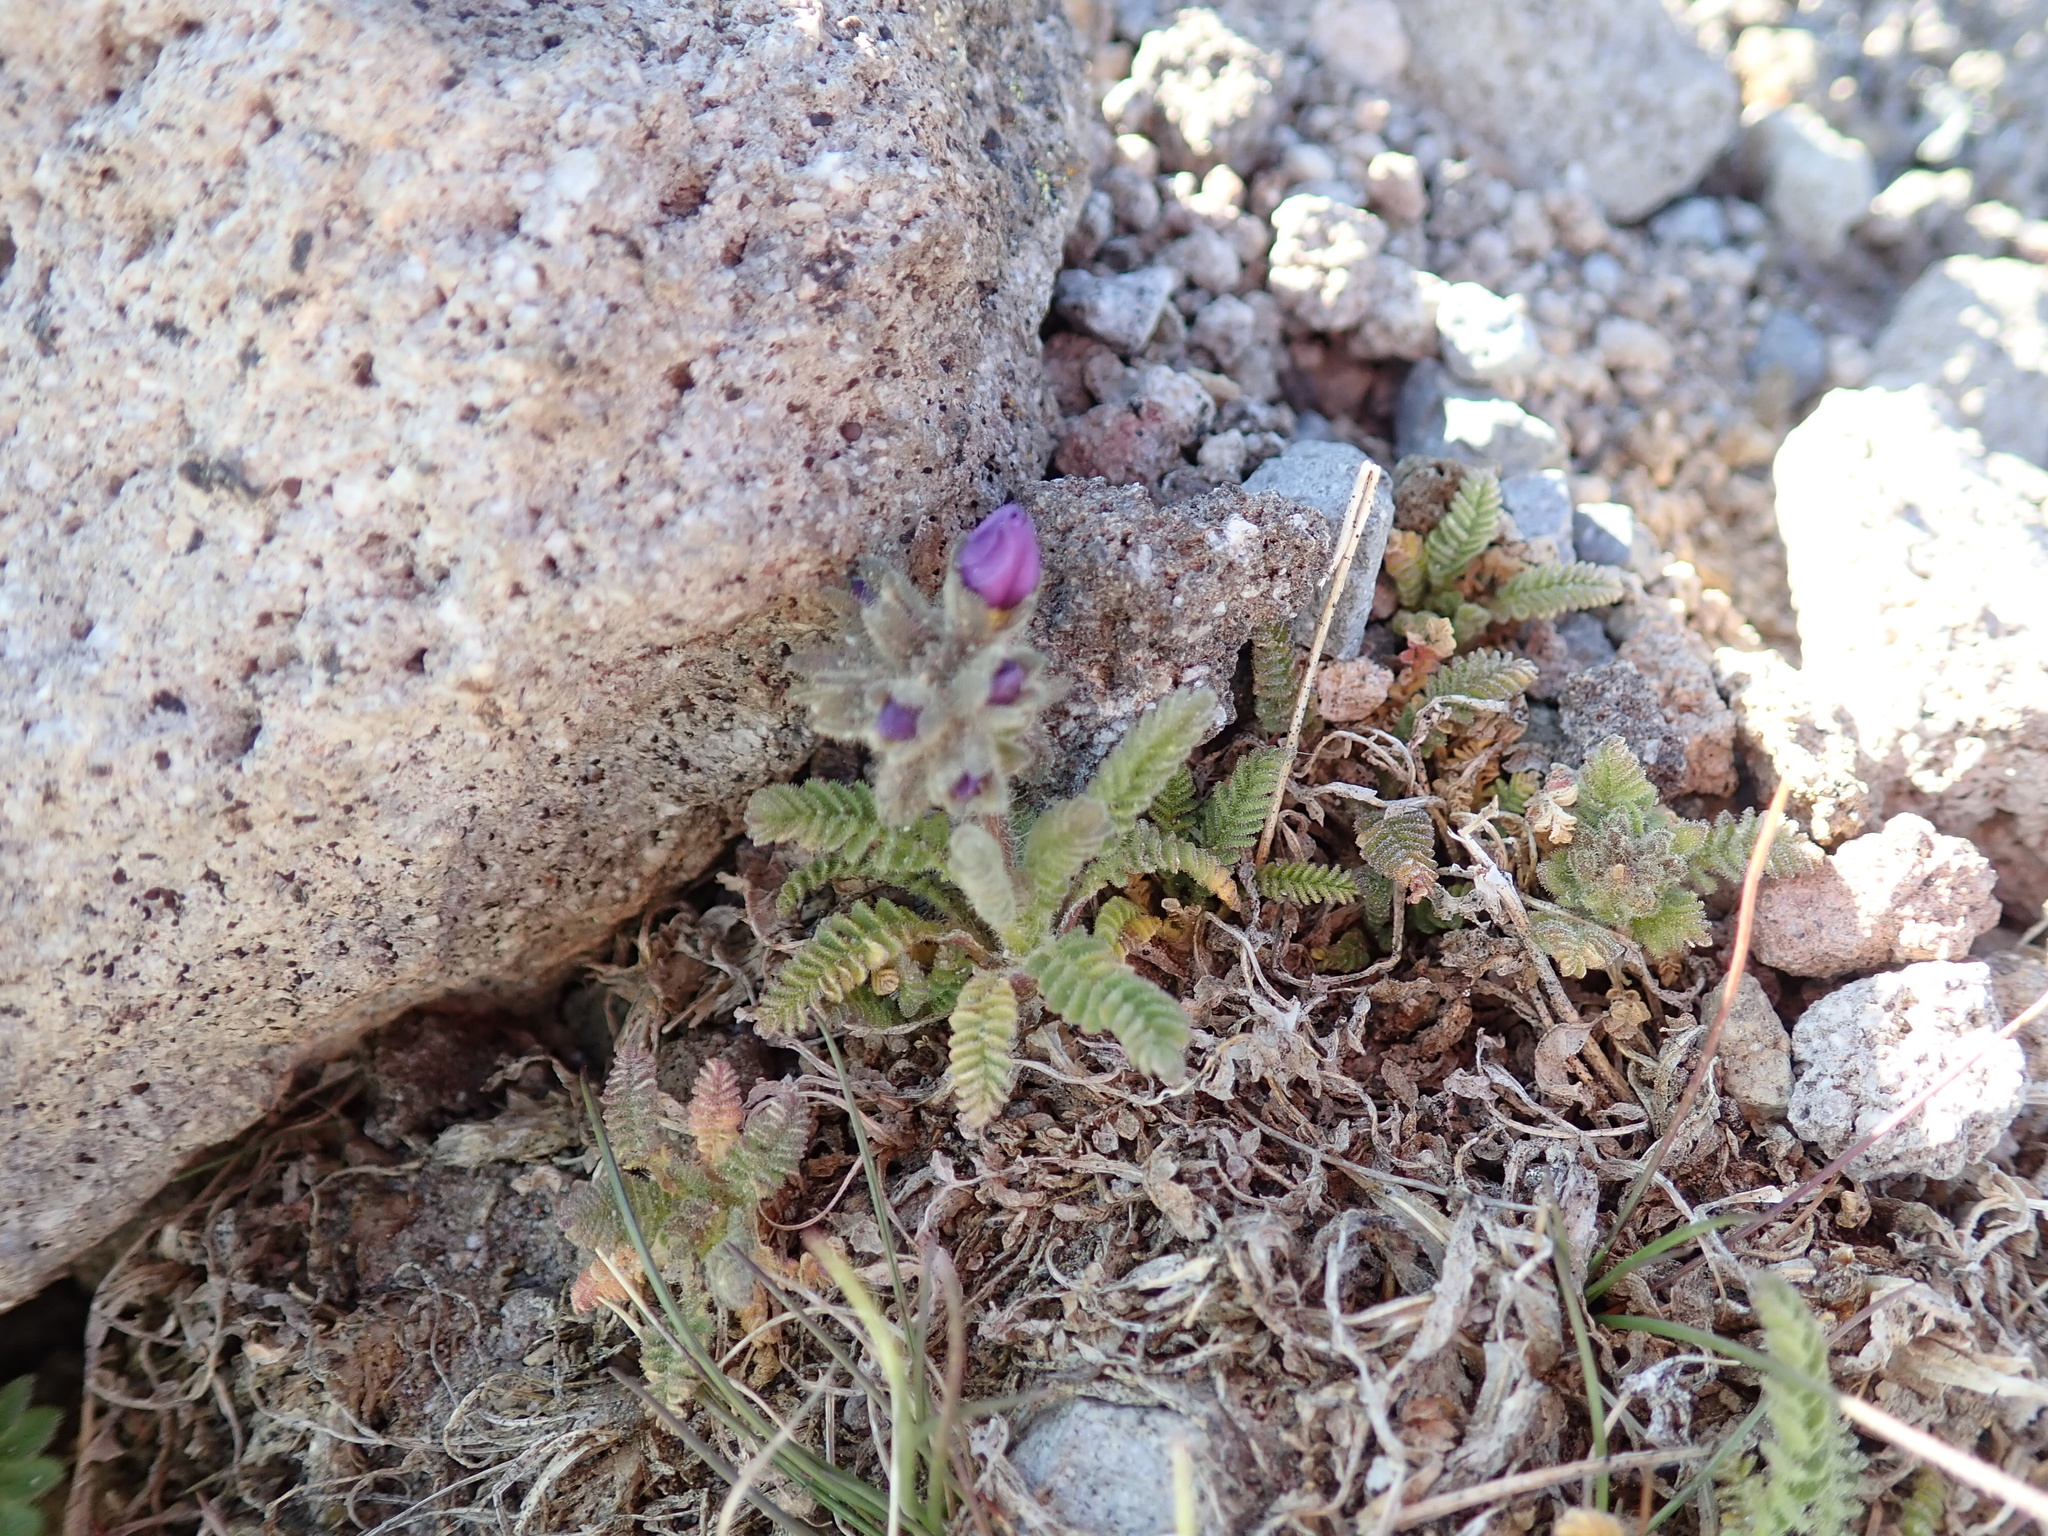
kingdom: Plantae
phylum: Tracheophyta
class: Magnoliopsida
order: Ericales
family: Polemoniaceae
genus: Polemonium
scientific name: Polemonium elegans
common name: Elegant jacob's-ladder
